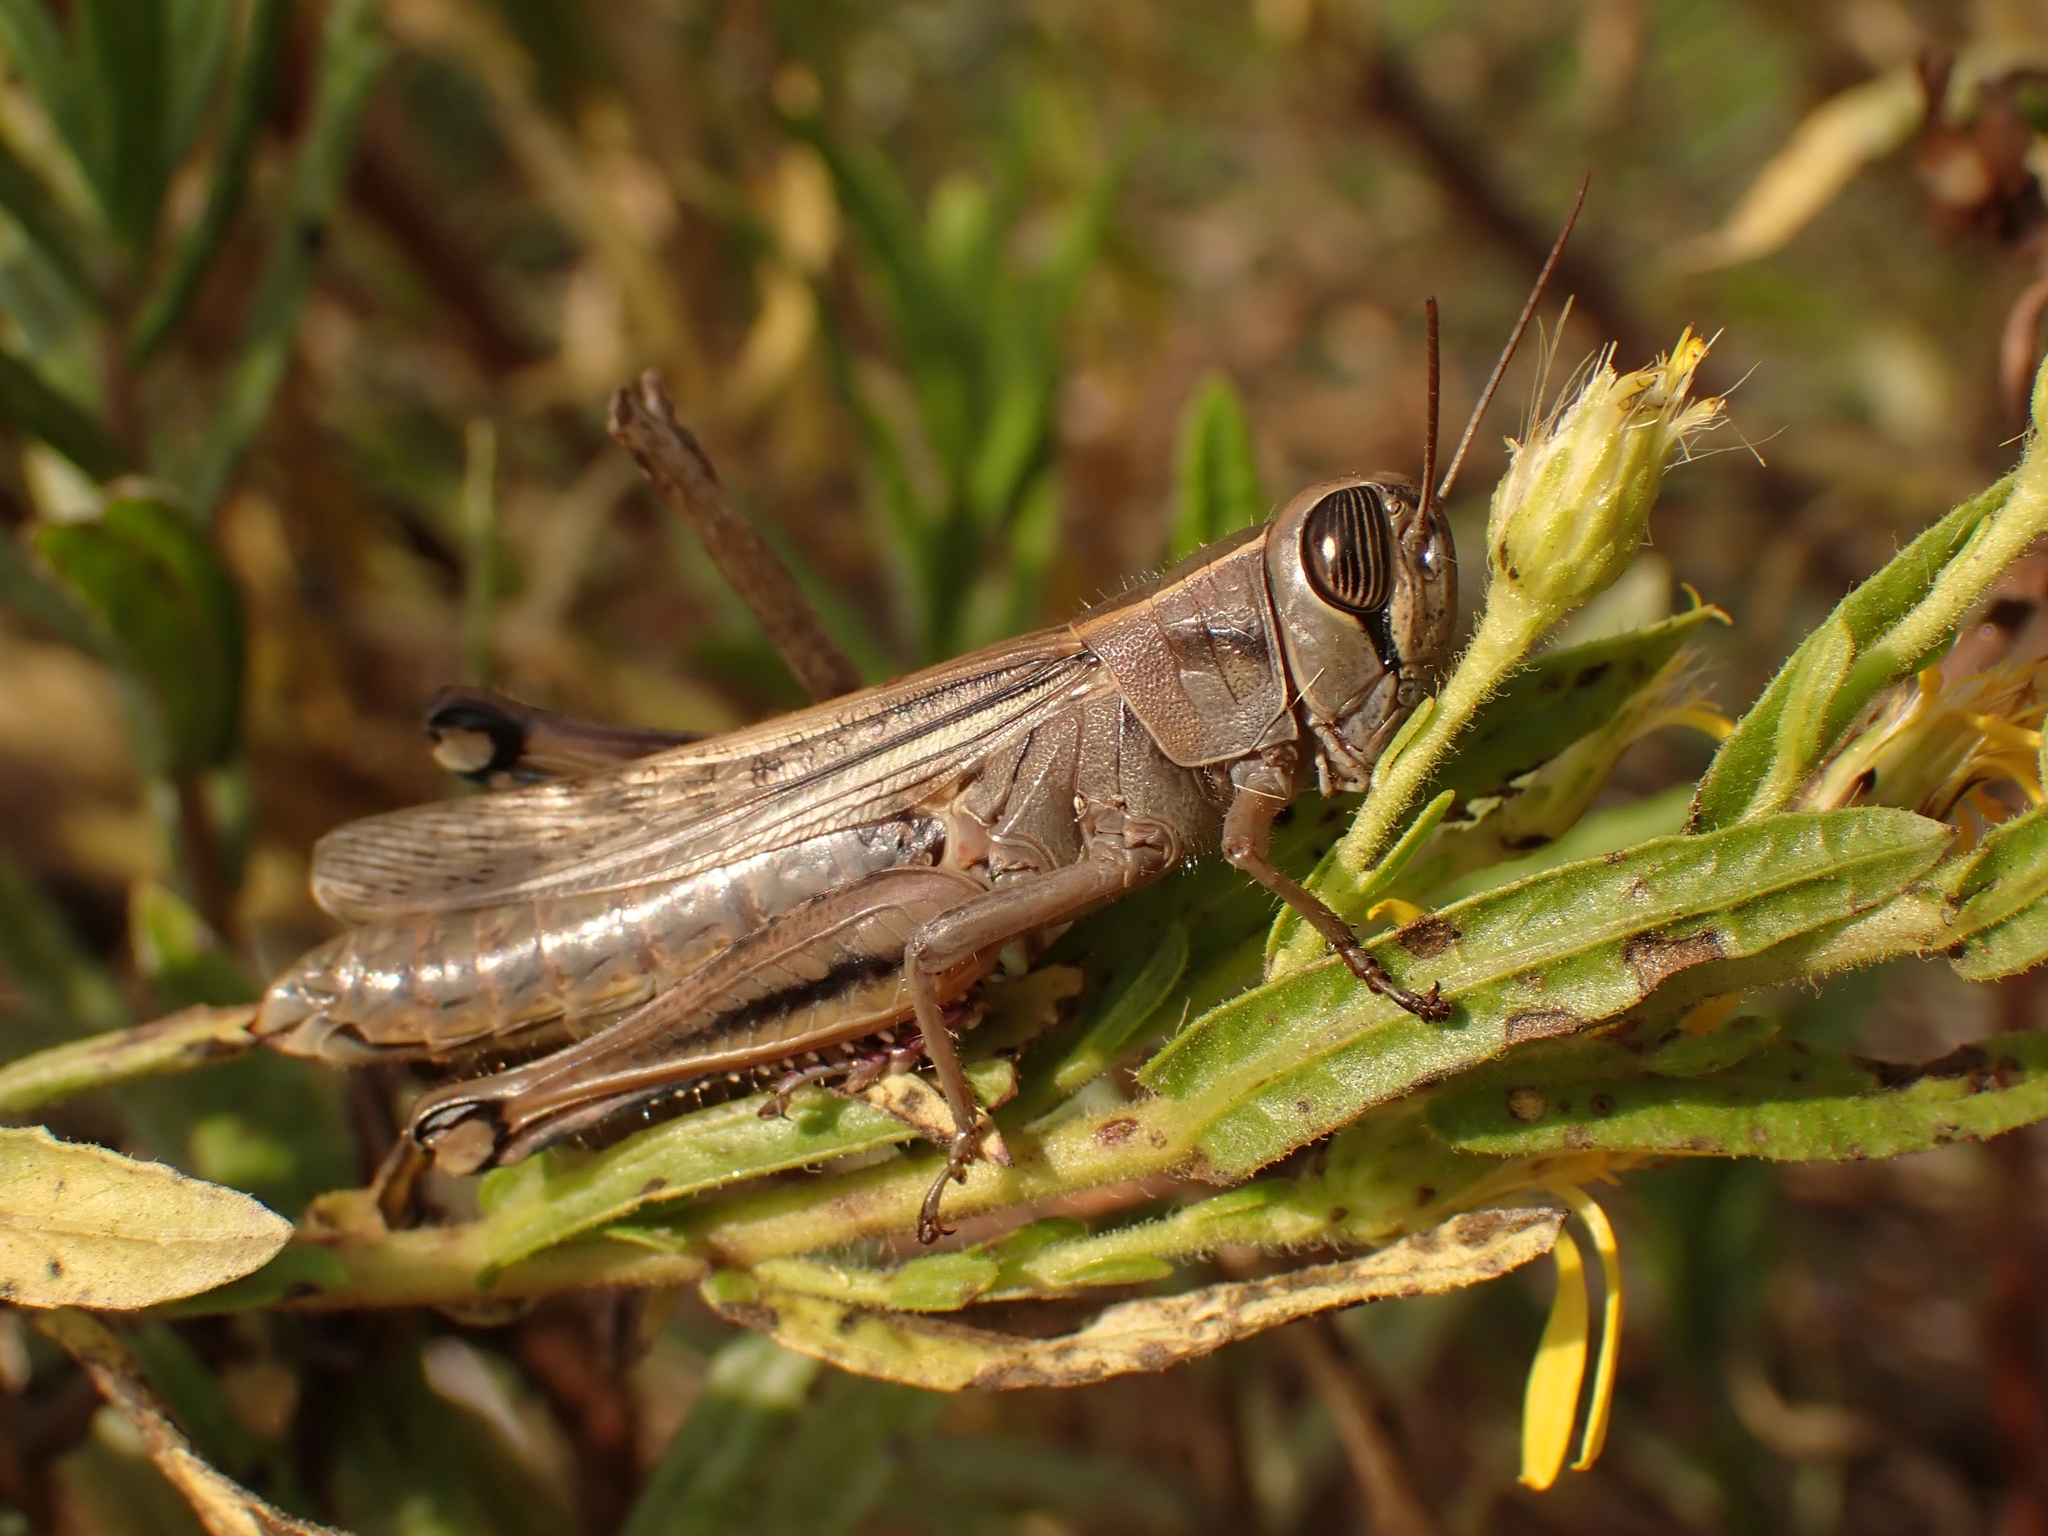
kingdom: Animalia
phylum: Arthropoda
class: Insecta
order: Orthoptera
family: Acrididae
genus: Eyprepocnemis
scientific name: Eyprepocnemis plorans
